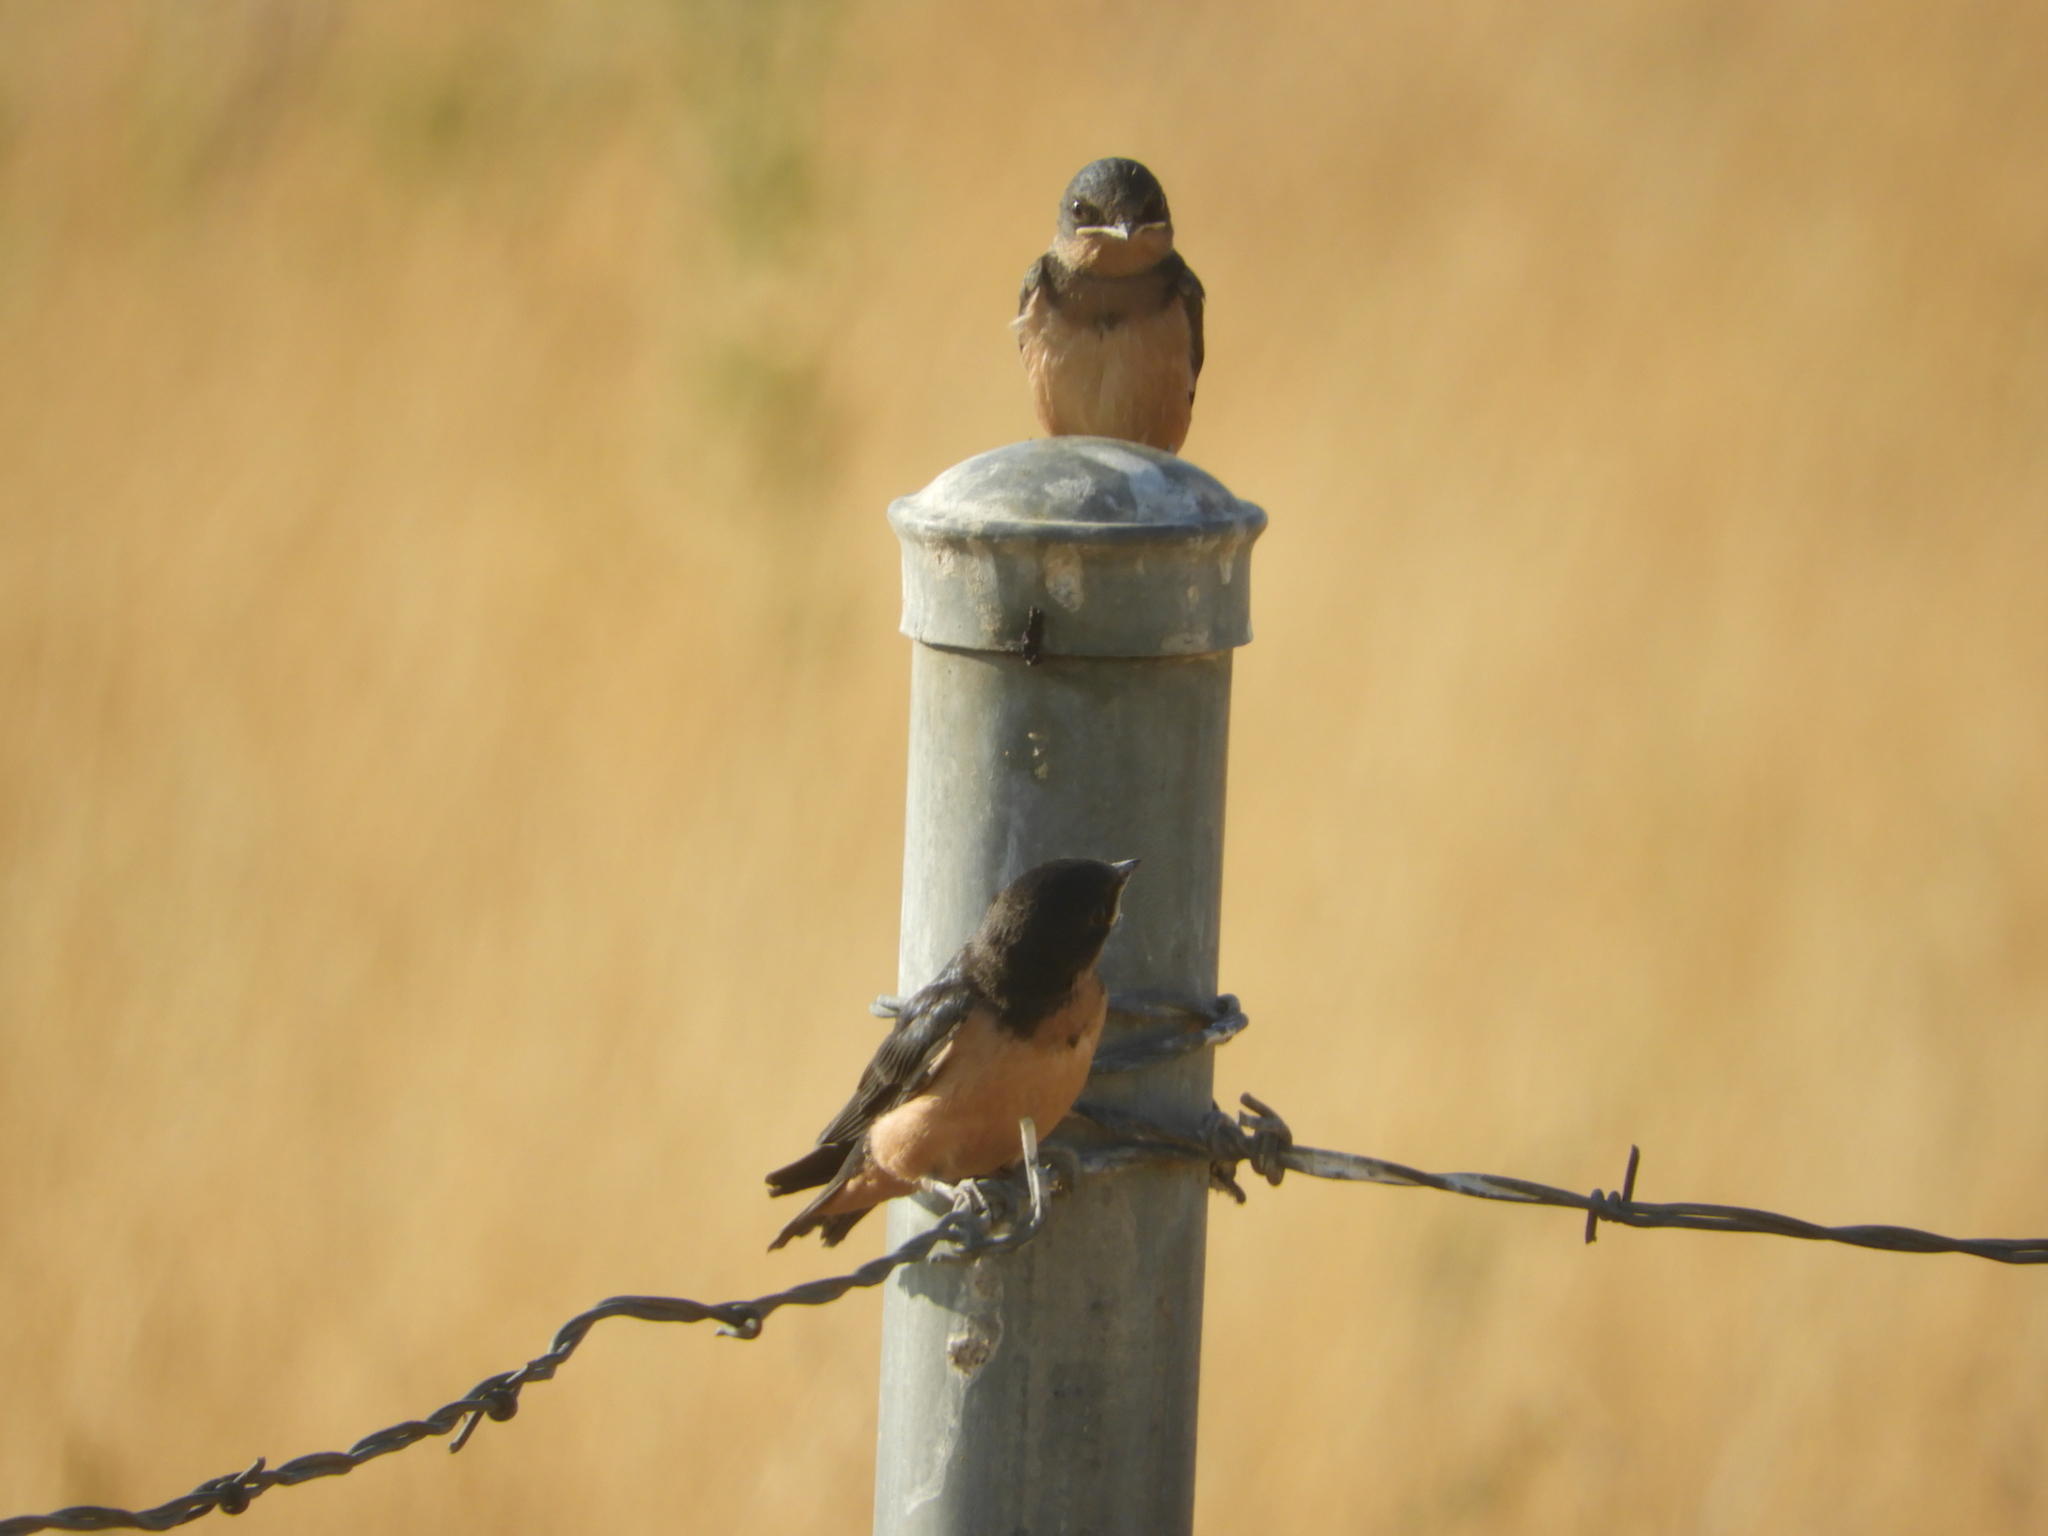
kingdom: Animalia
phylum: Chordata
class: Aves
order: Passeriformes
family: Hirundinidae
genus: Hirundo
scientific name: Hirundo rustica
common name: Barn swallow
